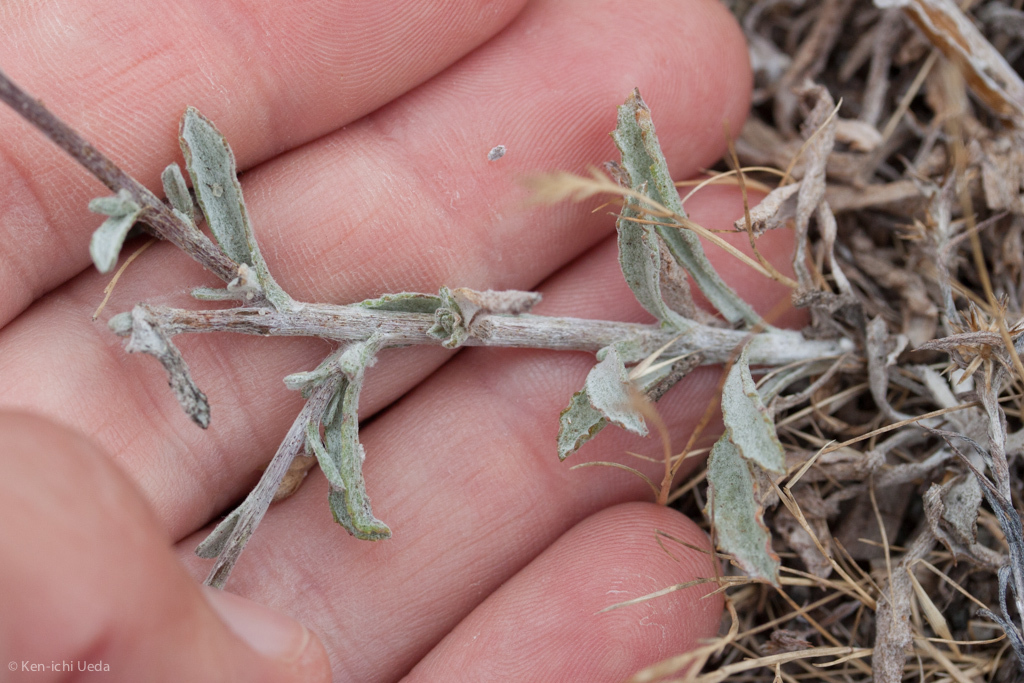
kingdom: Plantae
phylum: Tracheophyta
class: Magnoliopsida
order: Asterales
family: Asteraceae
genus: Corethrogyne
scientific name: Corethrogyne filaginifolia
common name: Sand-aster
